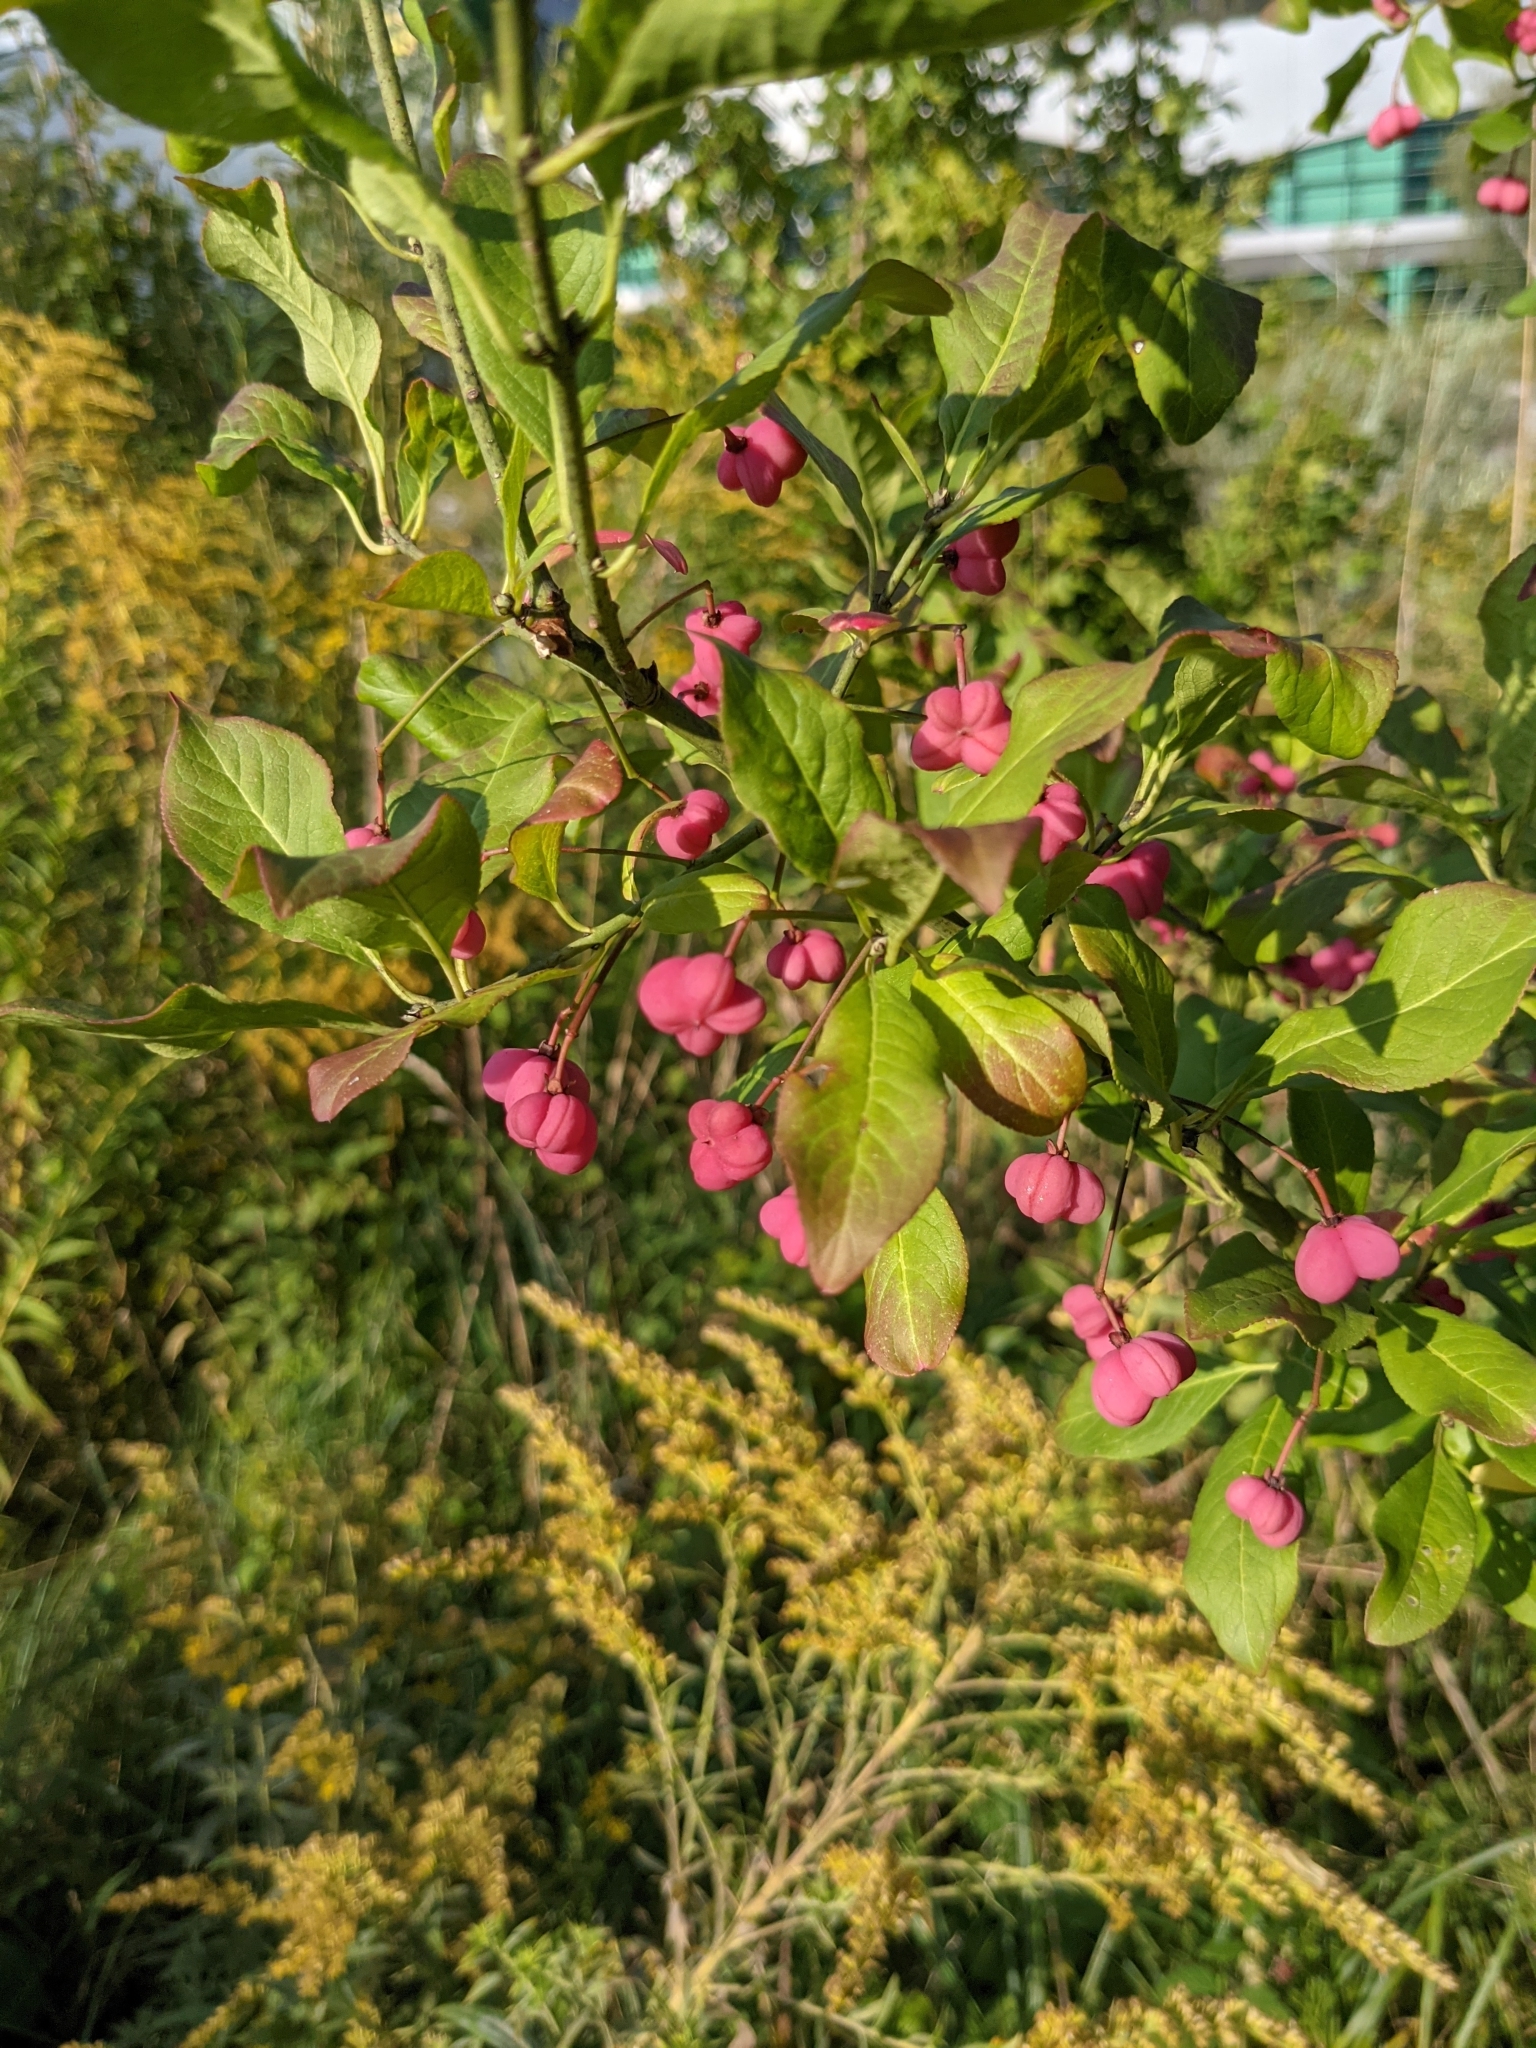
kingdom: Plantae
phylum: Tracheophyta
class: Magnoliopsida
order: Celastrales
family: Celastraceae
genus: Euonymus
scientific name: Euonymus europaeus
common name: Spindle
